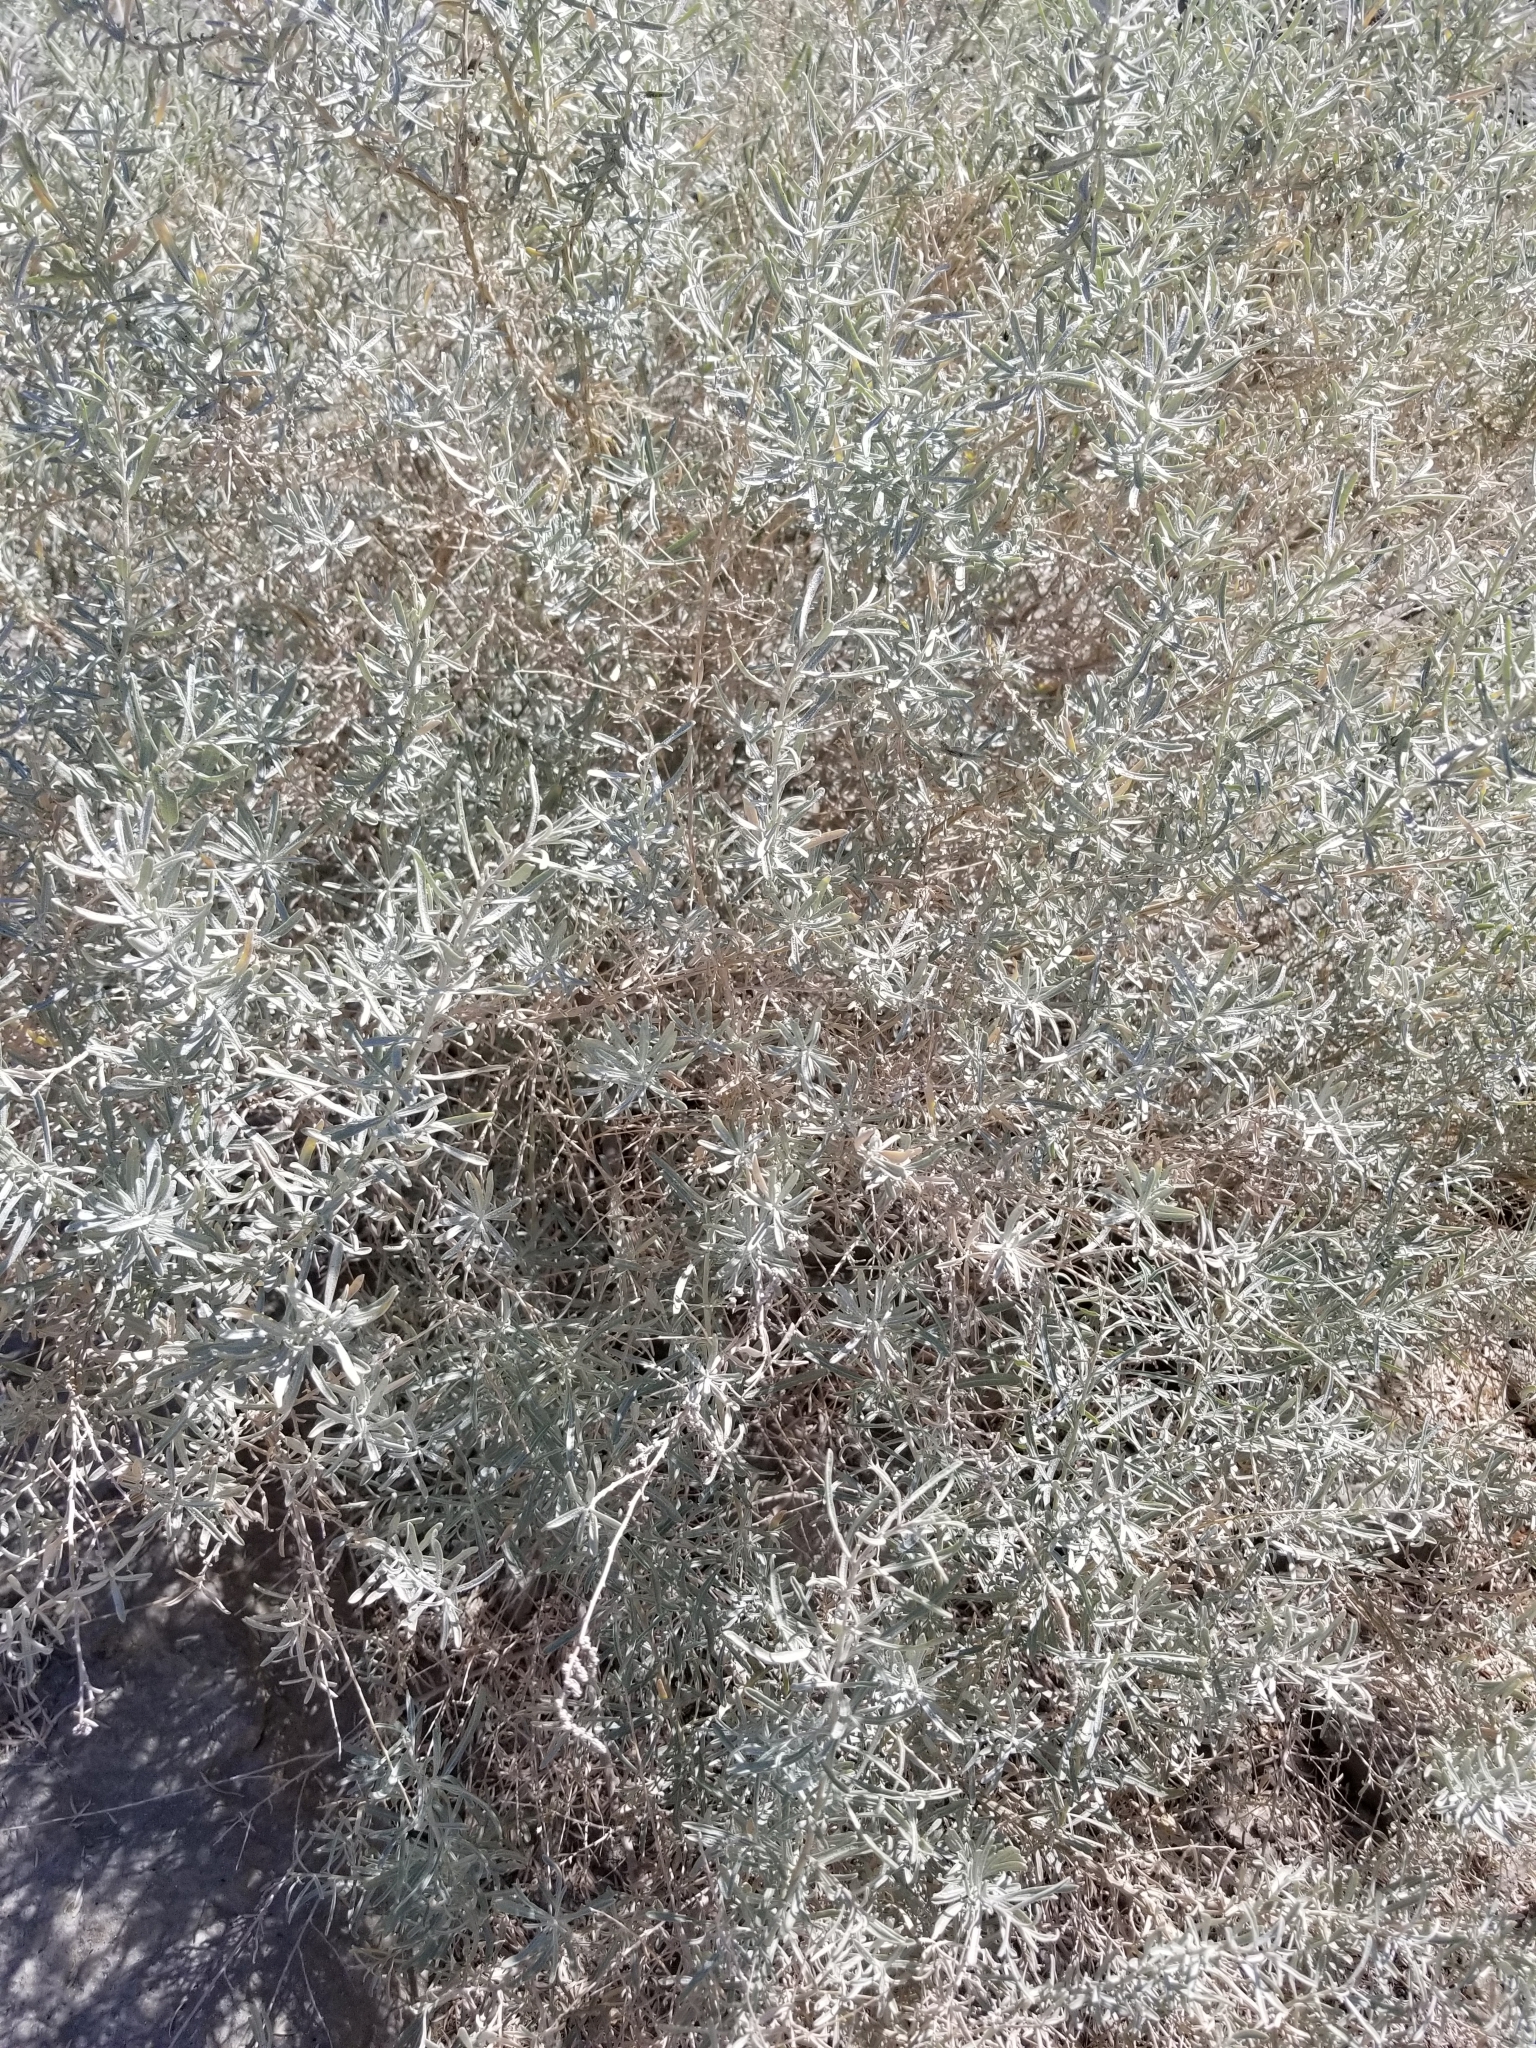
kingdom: Plantae
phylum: Tracheophyta
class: Magnoliopsida
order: Caryophyllales
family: Amaranthaceae
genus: Atriplex
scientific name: Atriplex canescens
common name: Four-wing saltbush
